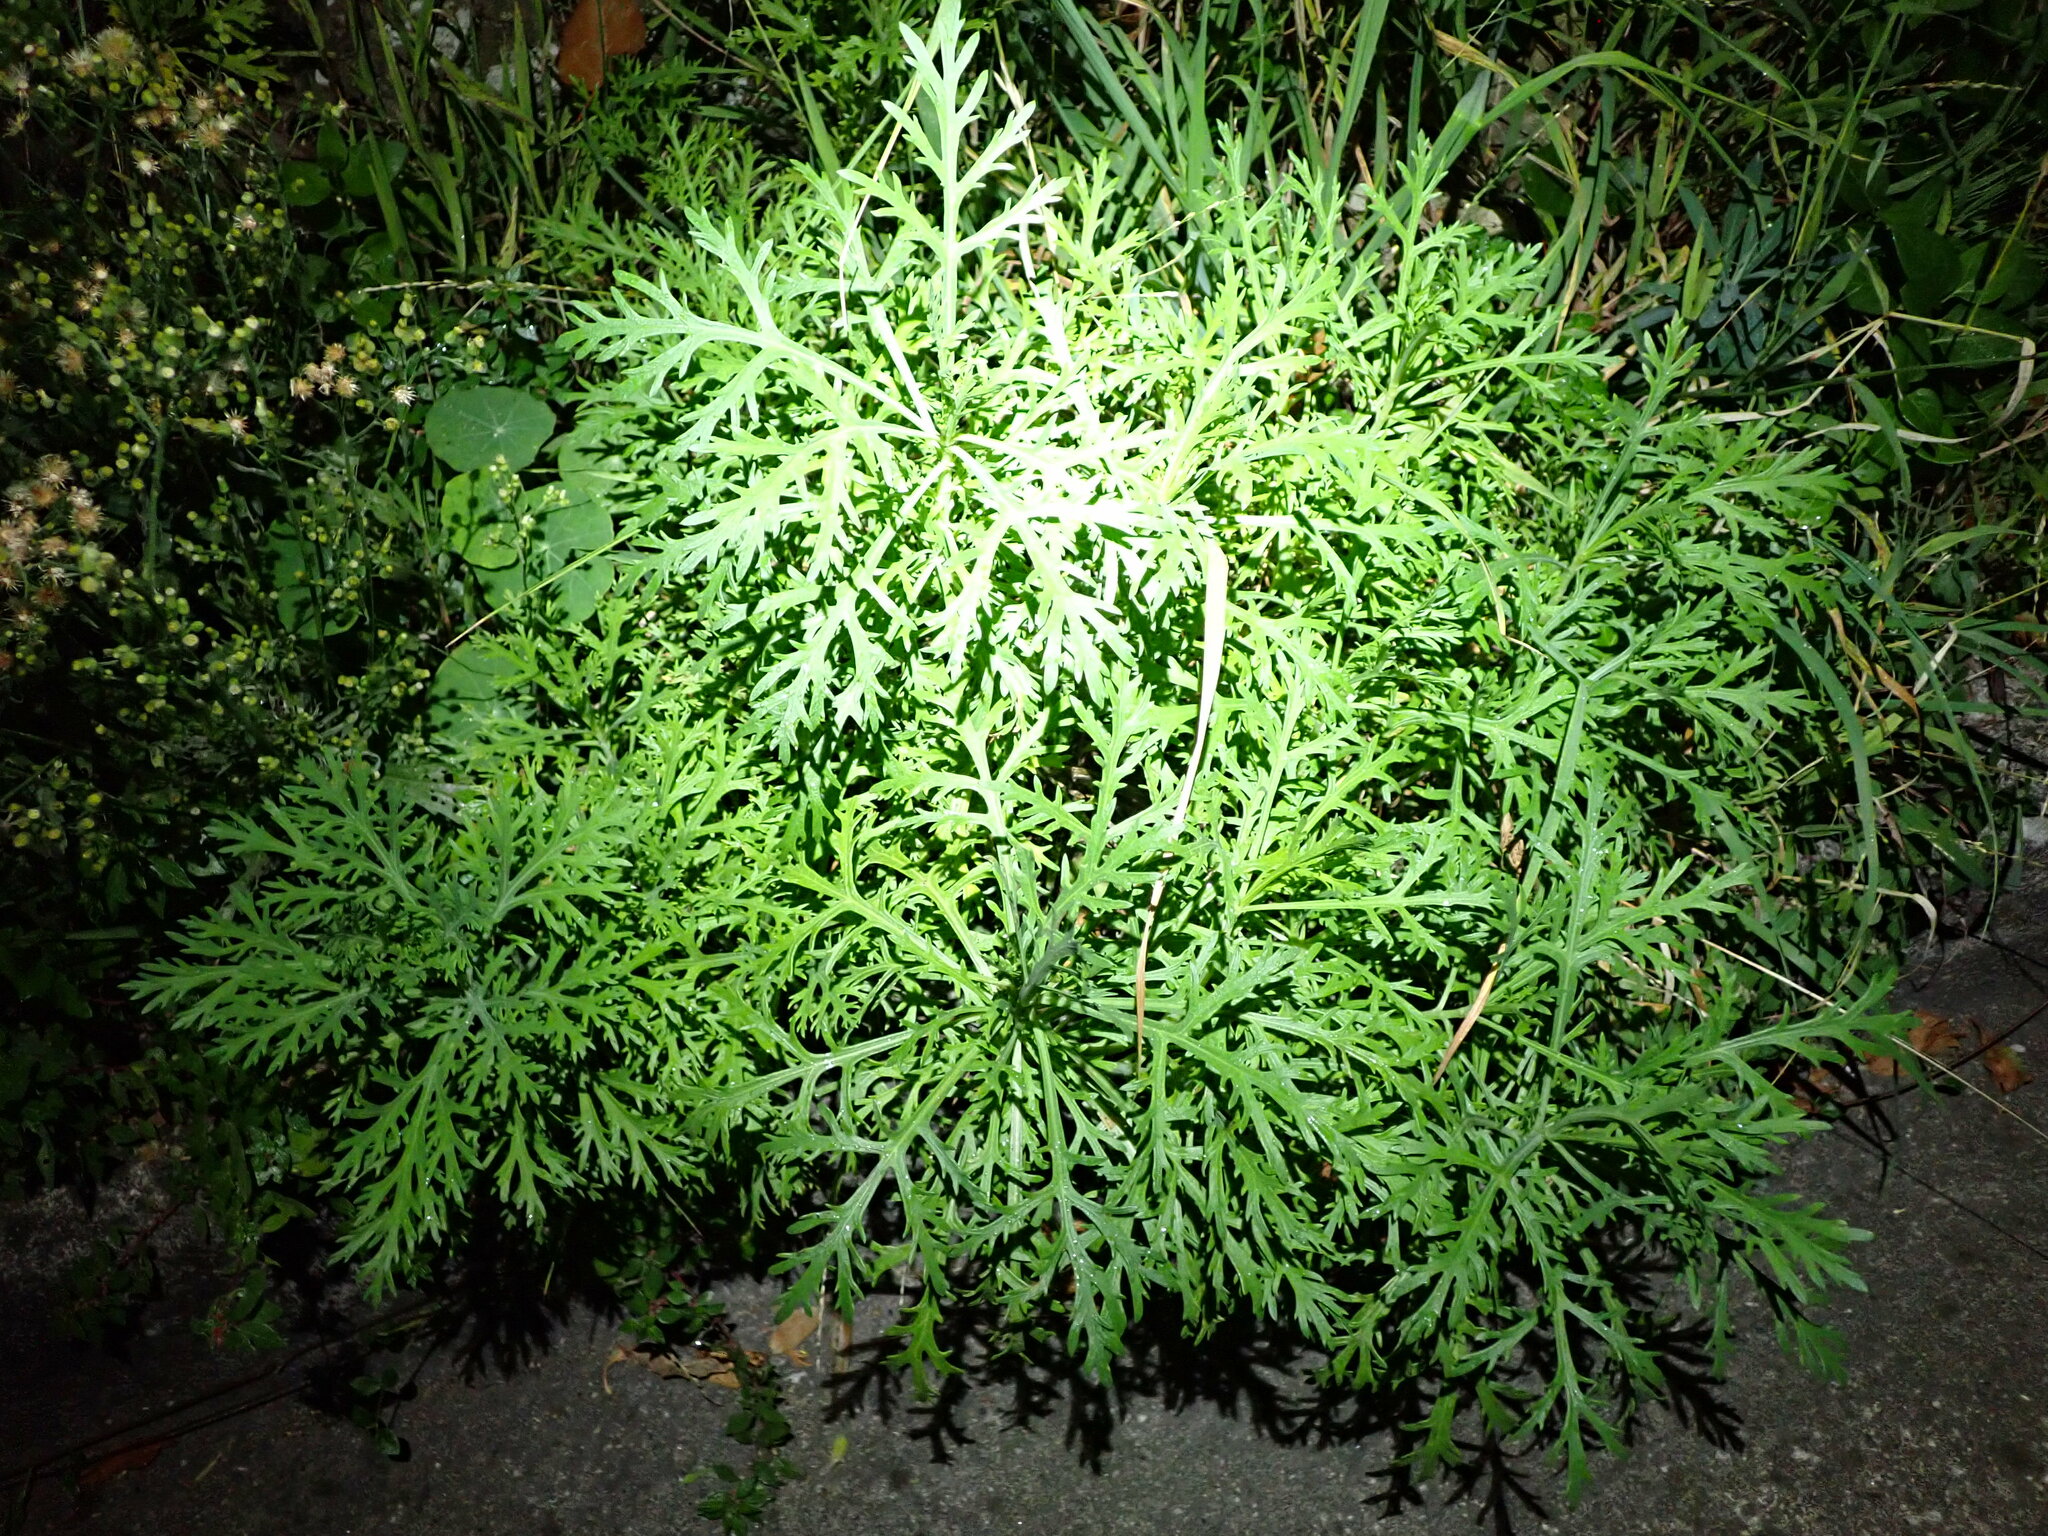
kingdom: Plantae
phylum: Tracheophyta
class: Magnoliopsida
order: Asterales
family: Asteraceae
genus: Argyranthemum
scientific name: Argyranthemum frutescens
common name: Paris daisy
